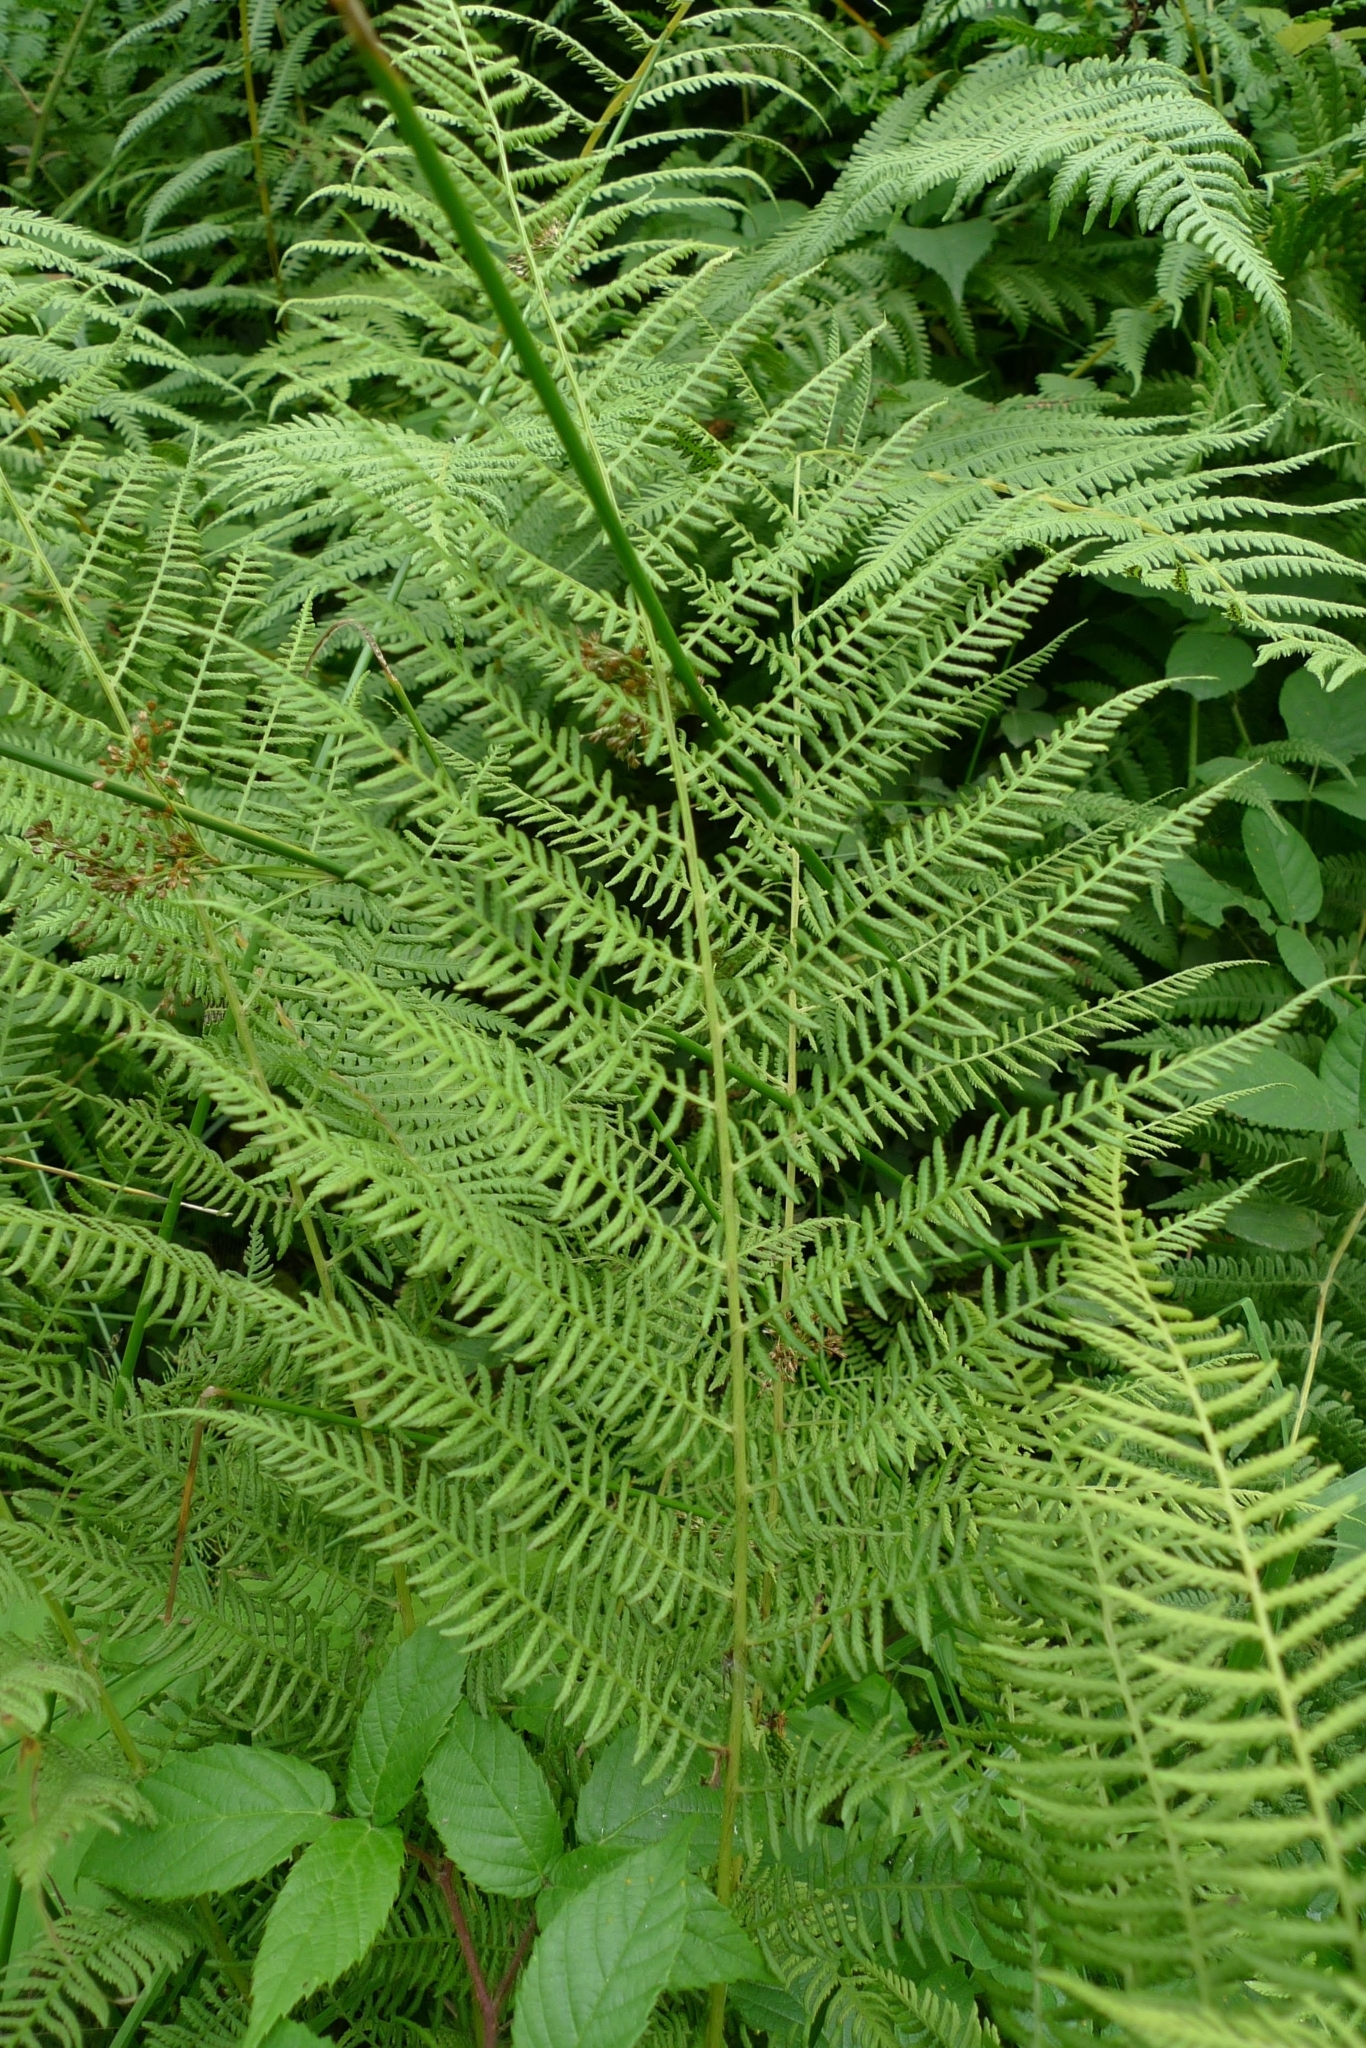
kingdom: Plantae
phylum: Tracheophyta
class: Polypodiopsida
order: Polypodiales
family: Athyriaceae
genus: Athyrium
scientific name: Athyrium filix-femina
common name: Lady fern
